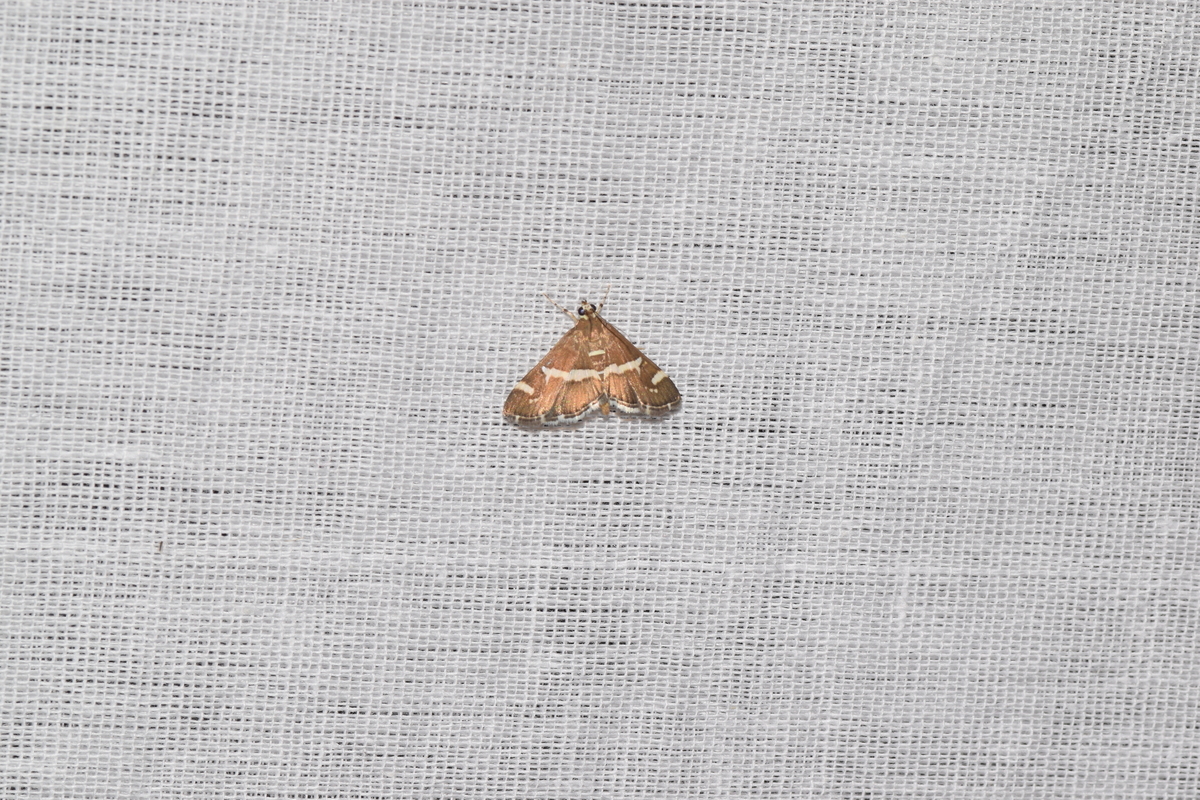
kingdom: Animalia
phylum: Arthropoda
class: Insecta
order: Lepidoptera
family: Crambidae
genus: Spoladea
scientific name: Spoladea recurvalis
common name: Beet webworm moth
